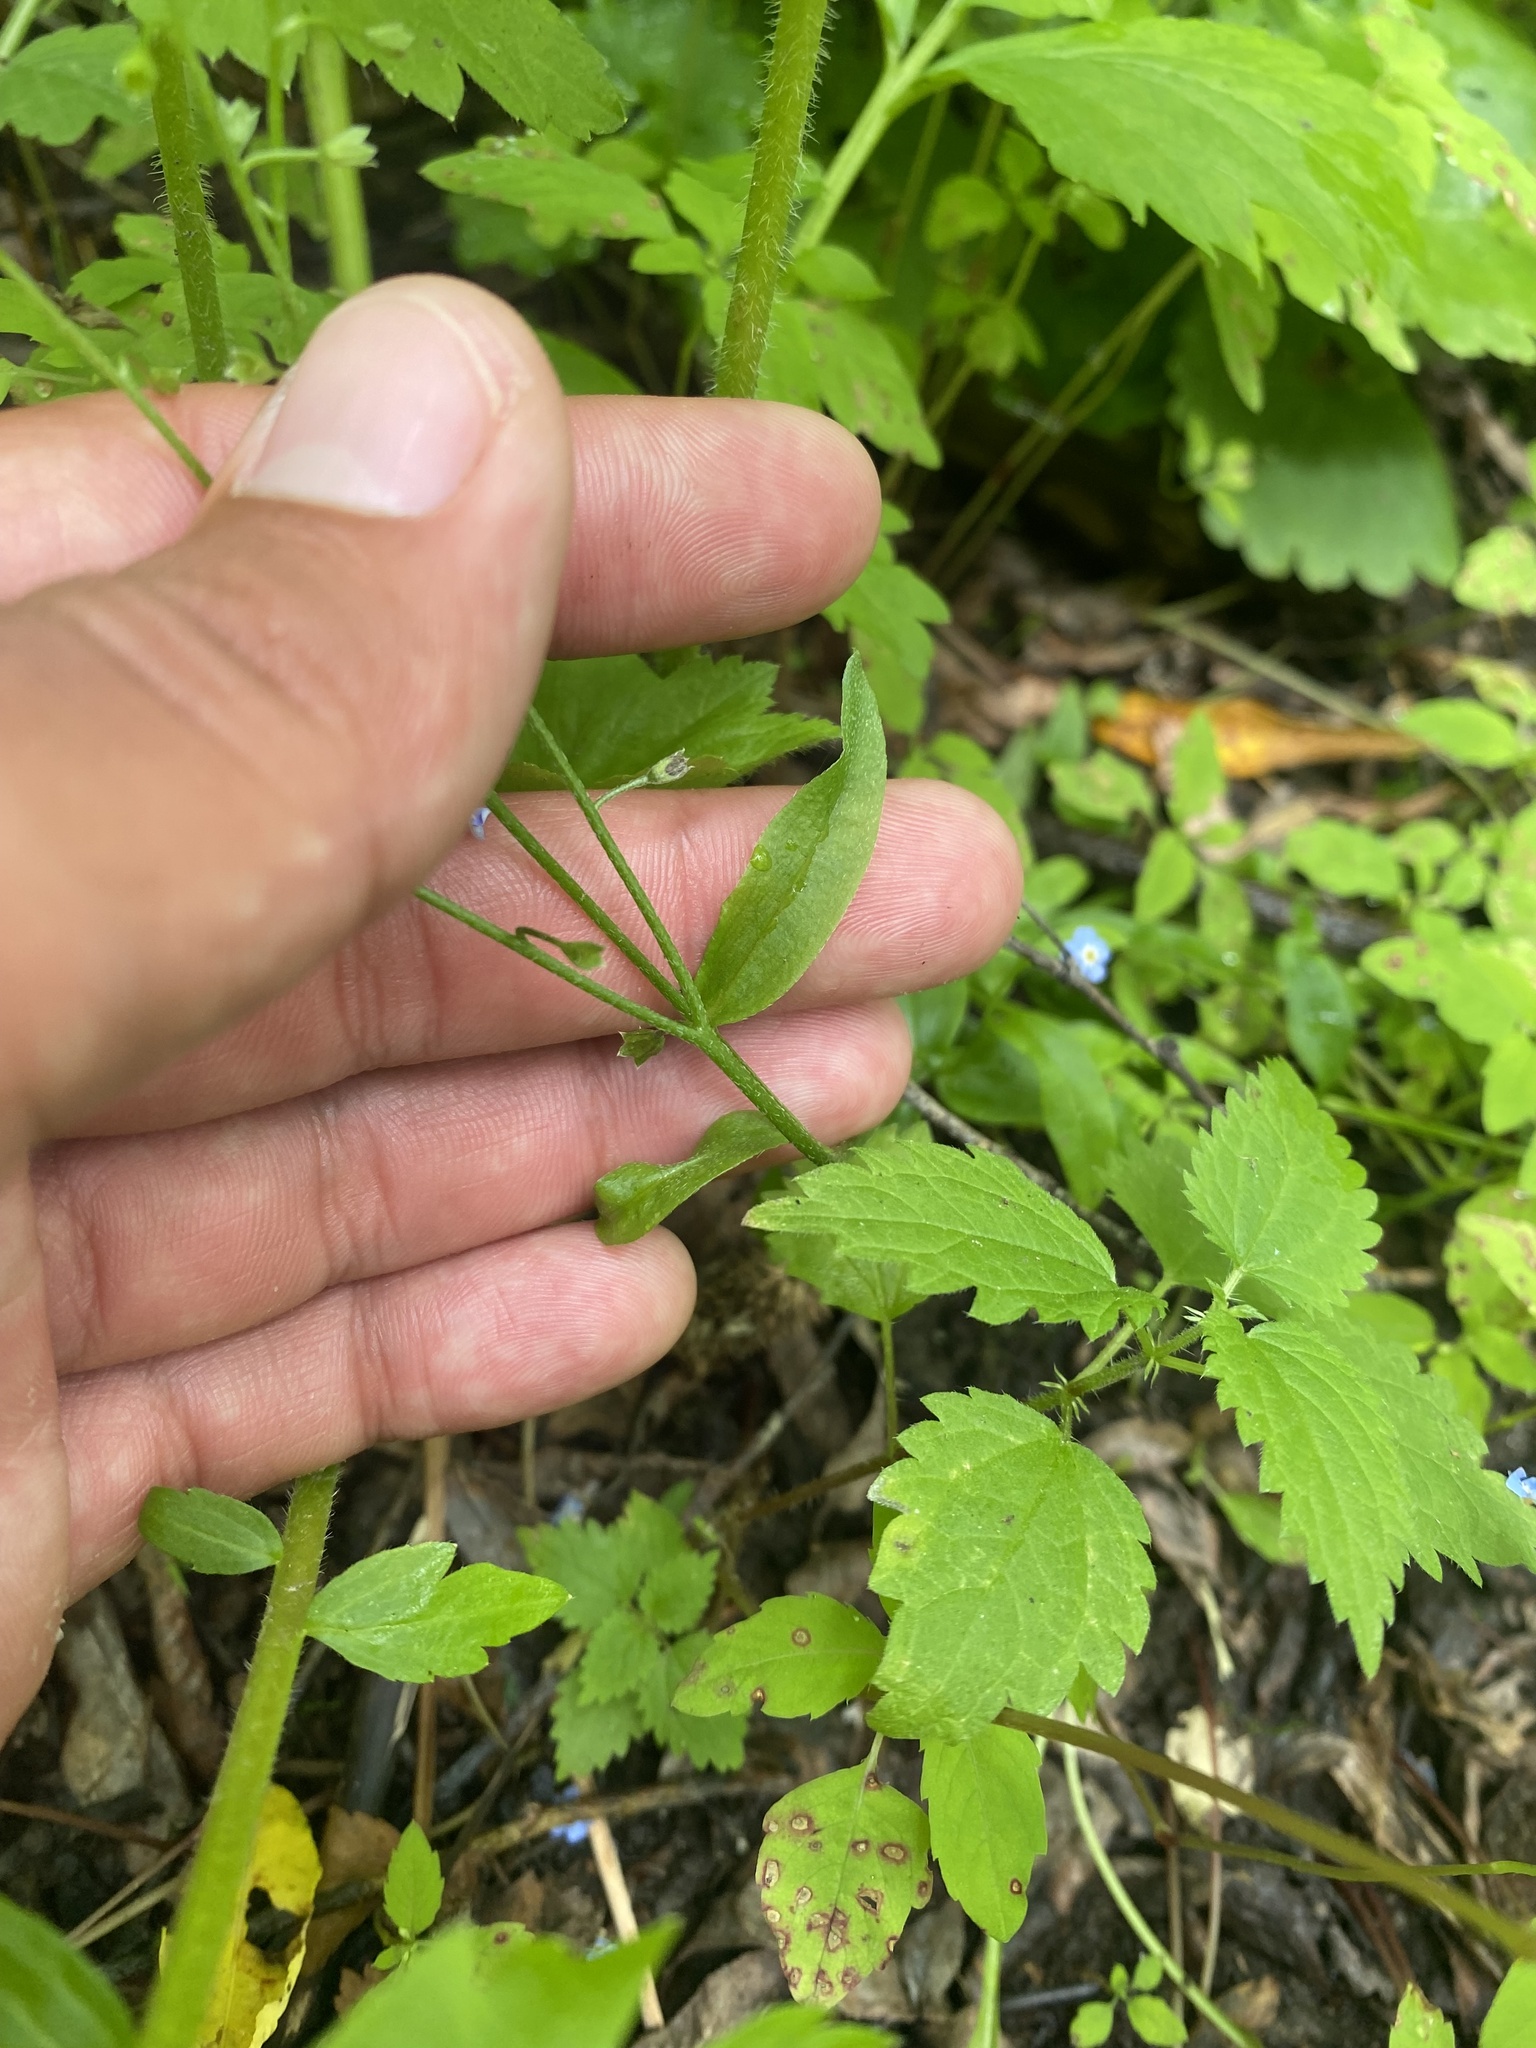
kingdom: Plantae
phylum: Tracheophyta
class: Magnoliopsida
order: Boraginales
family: Boraginaceae
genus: Myosotis
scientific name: Myosotis scorpioides
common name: Water forget-me-not
